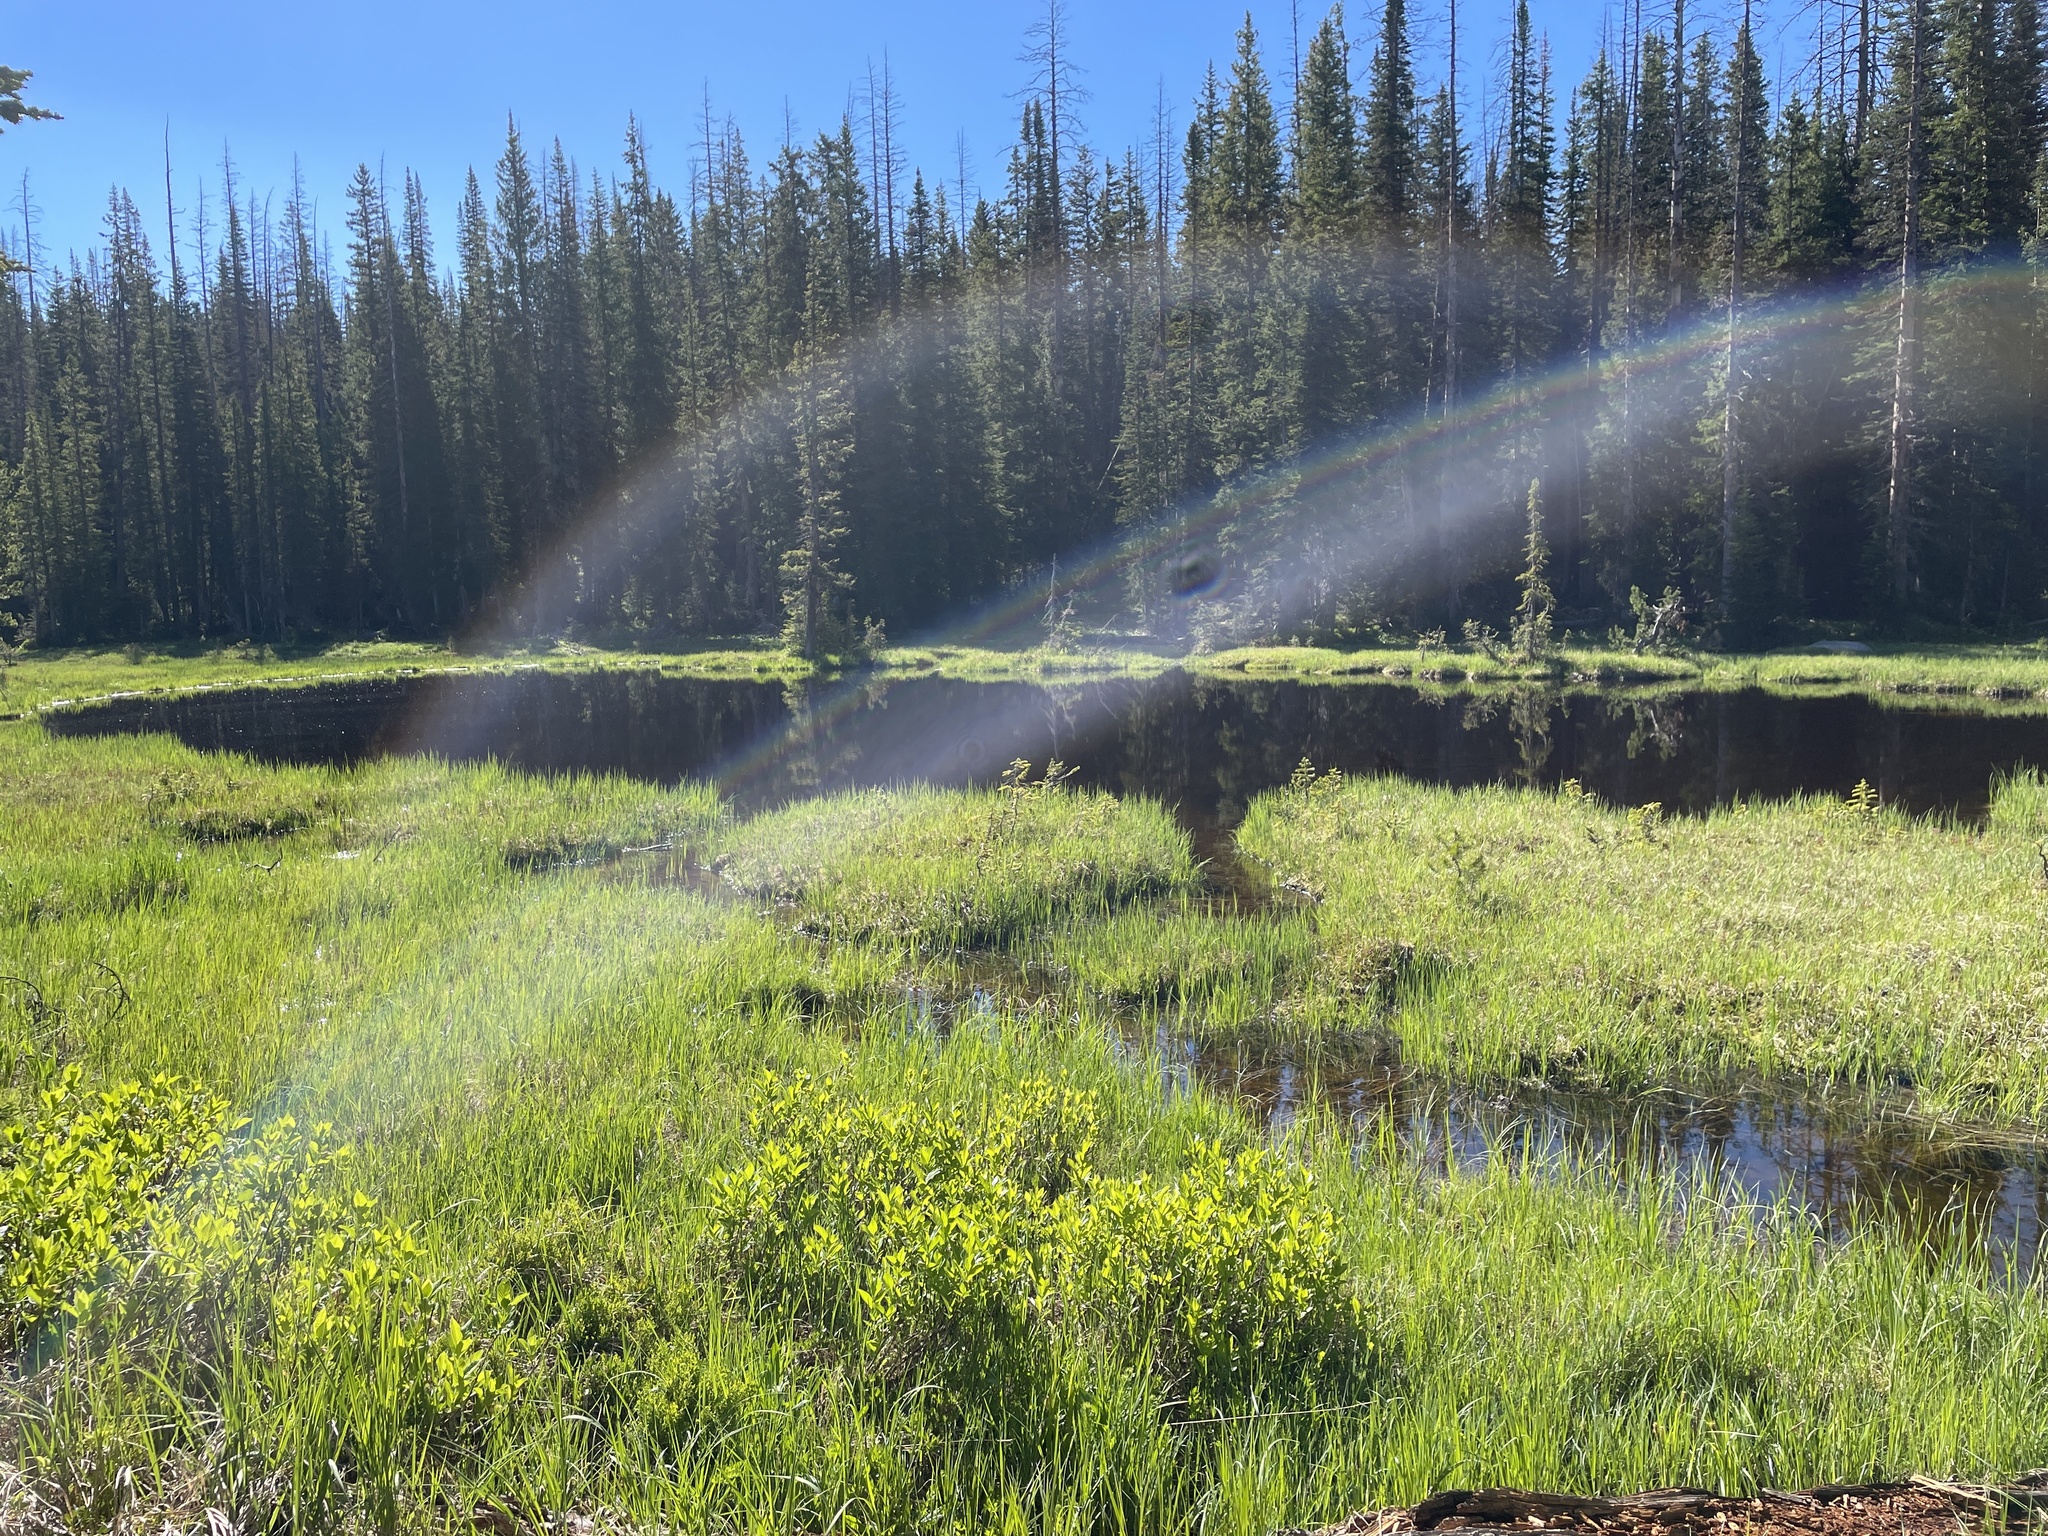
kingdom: Animalia
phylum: Chordata
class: Amphibia
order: Anura
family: Hylidae
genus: Pseudacris
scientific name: Pseudacris maculata
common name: Boreal chorus frog
